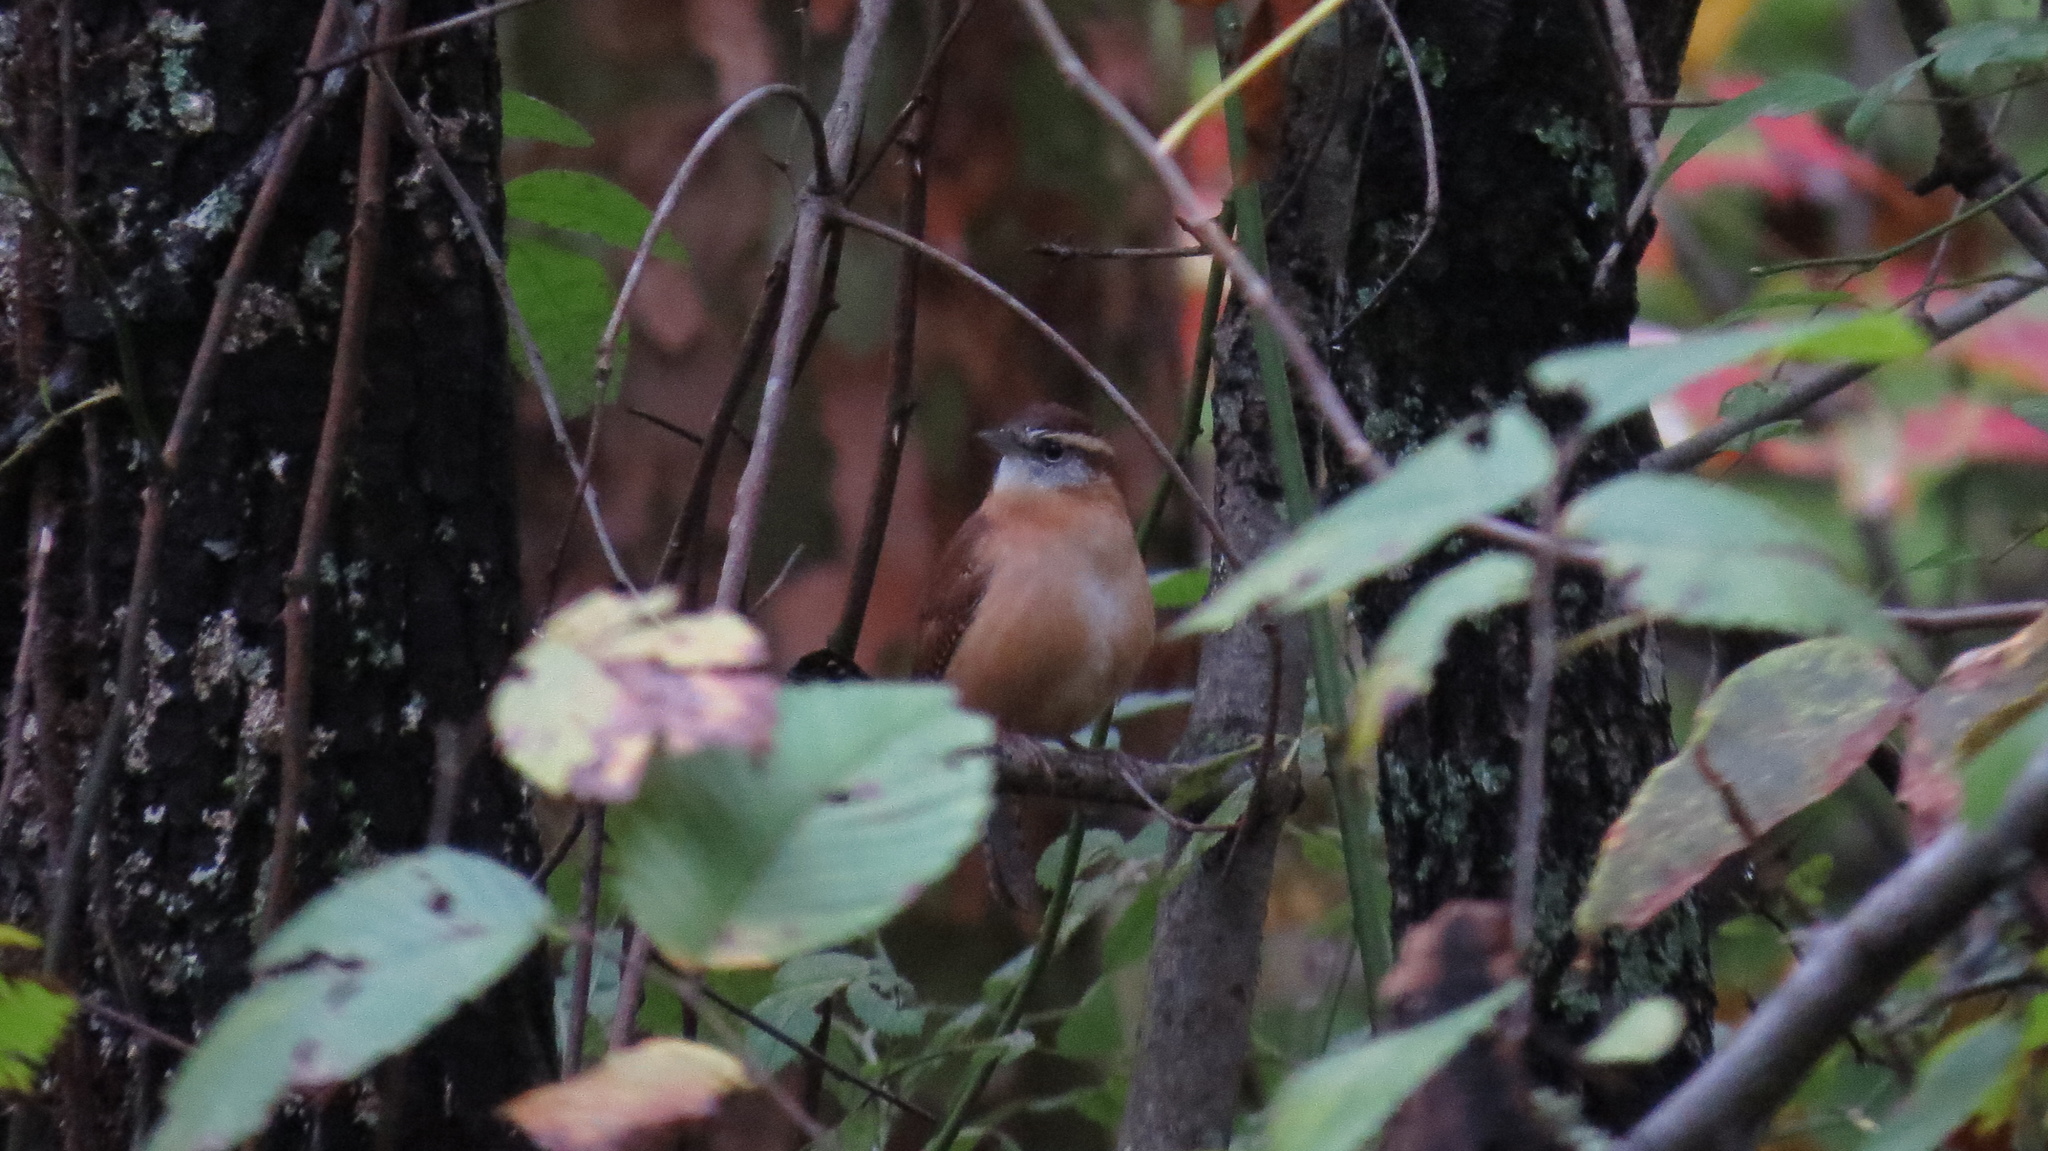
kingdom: Animalia
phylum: Chordata
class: Aves
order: Passeriformes
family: Troglodytidae
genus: Thryothorus
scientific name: Thryothorus ludovicianus
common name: Carolina wren
